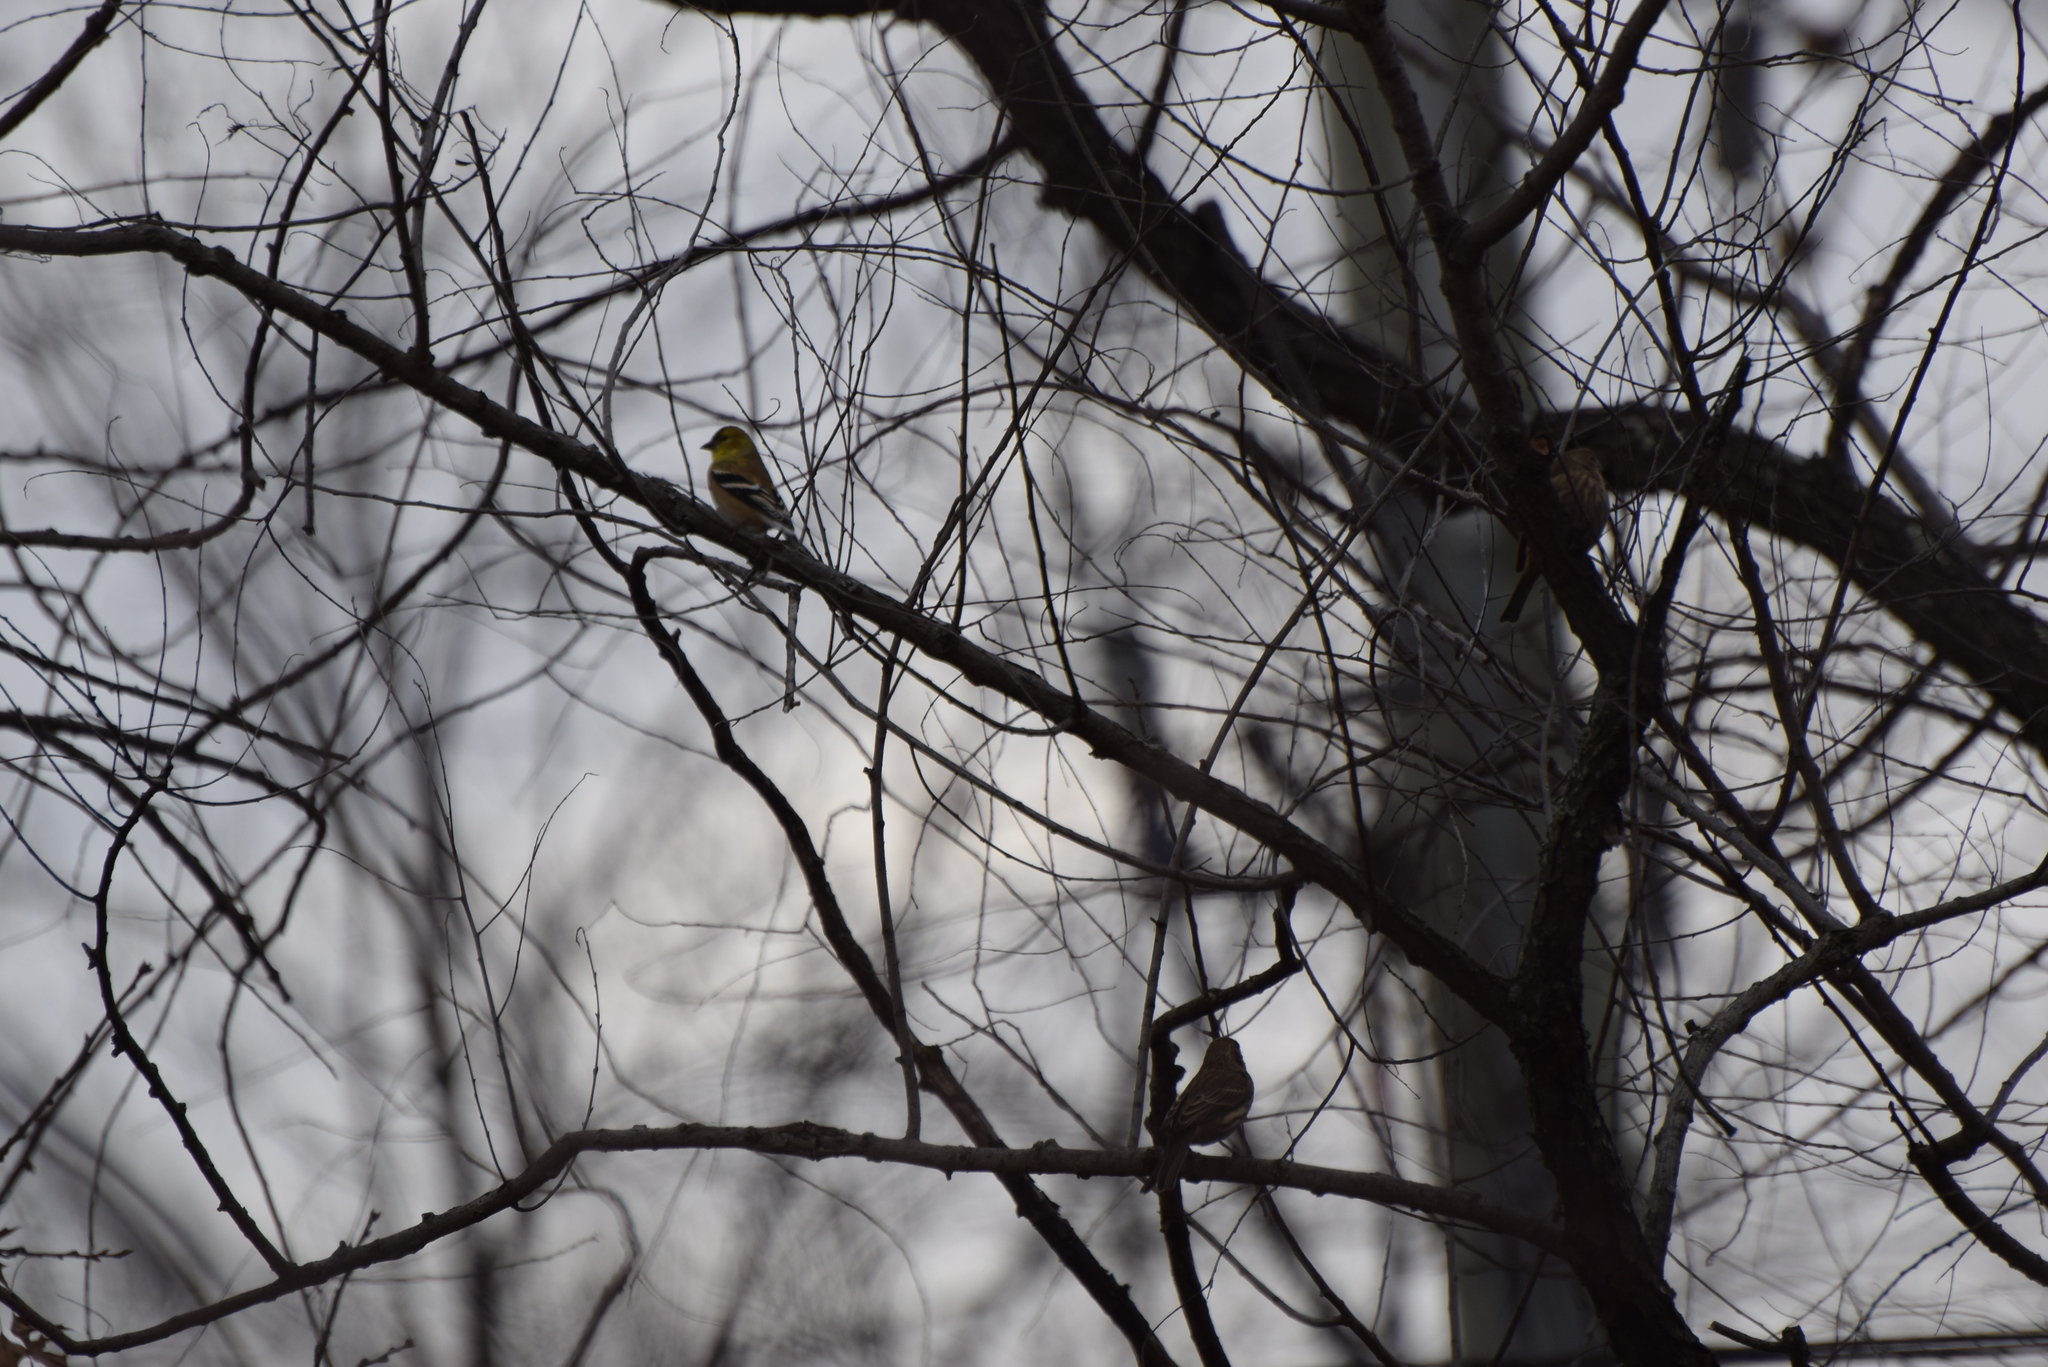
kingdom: Animalia
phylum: Chordata
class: Aves
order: Passeriformes
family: Fringillidae
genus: Spinus
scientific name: Spinus tristis
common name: American goldfinch
